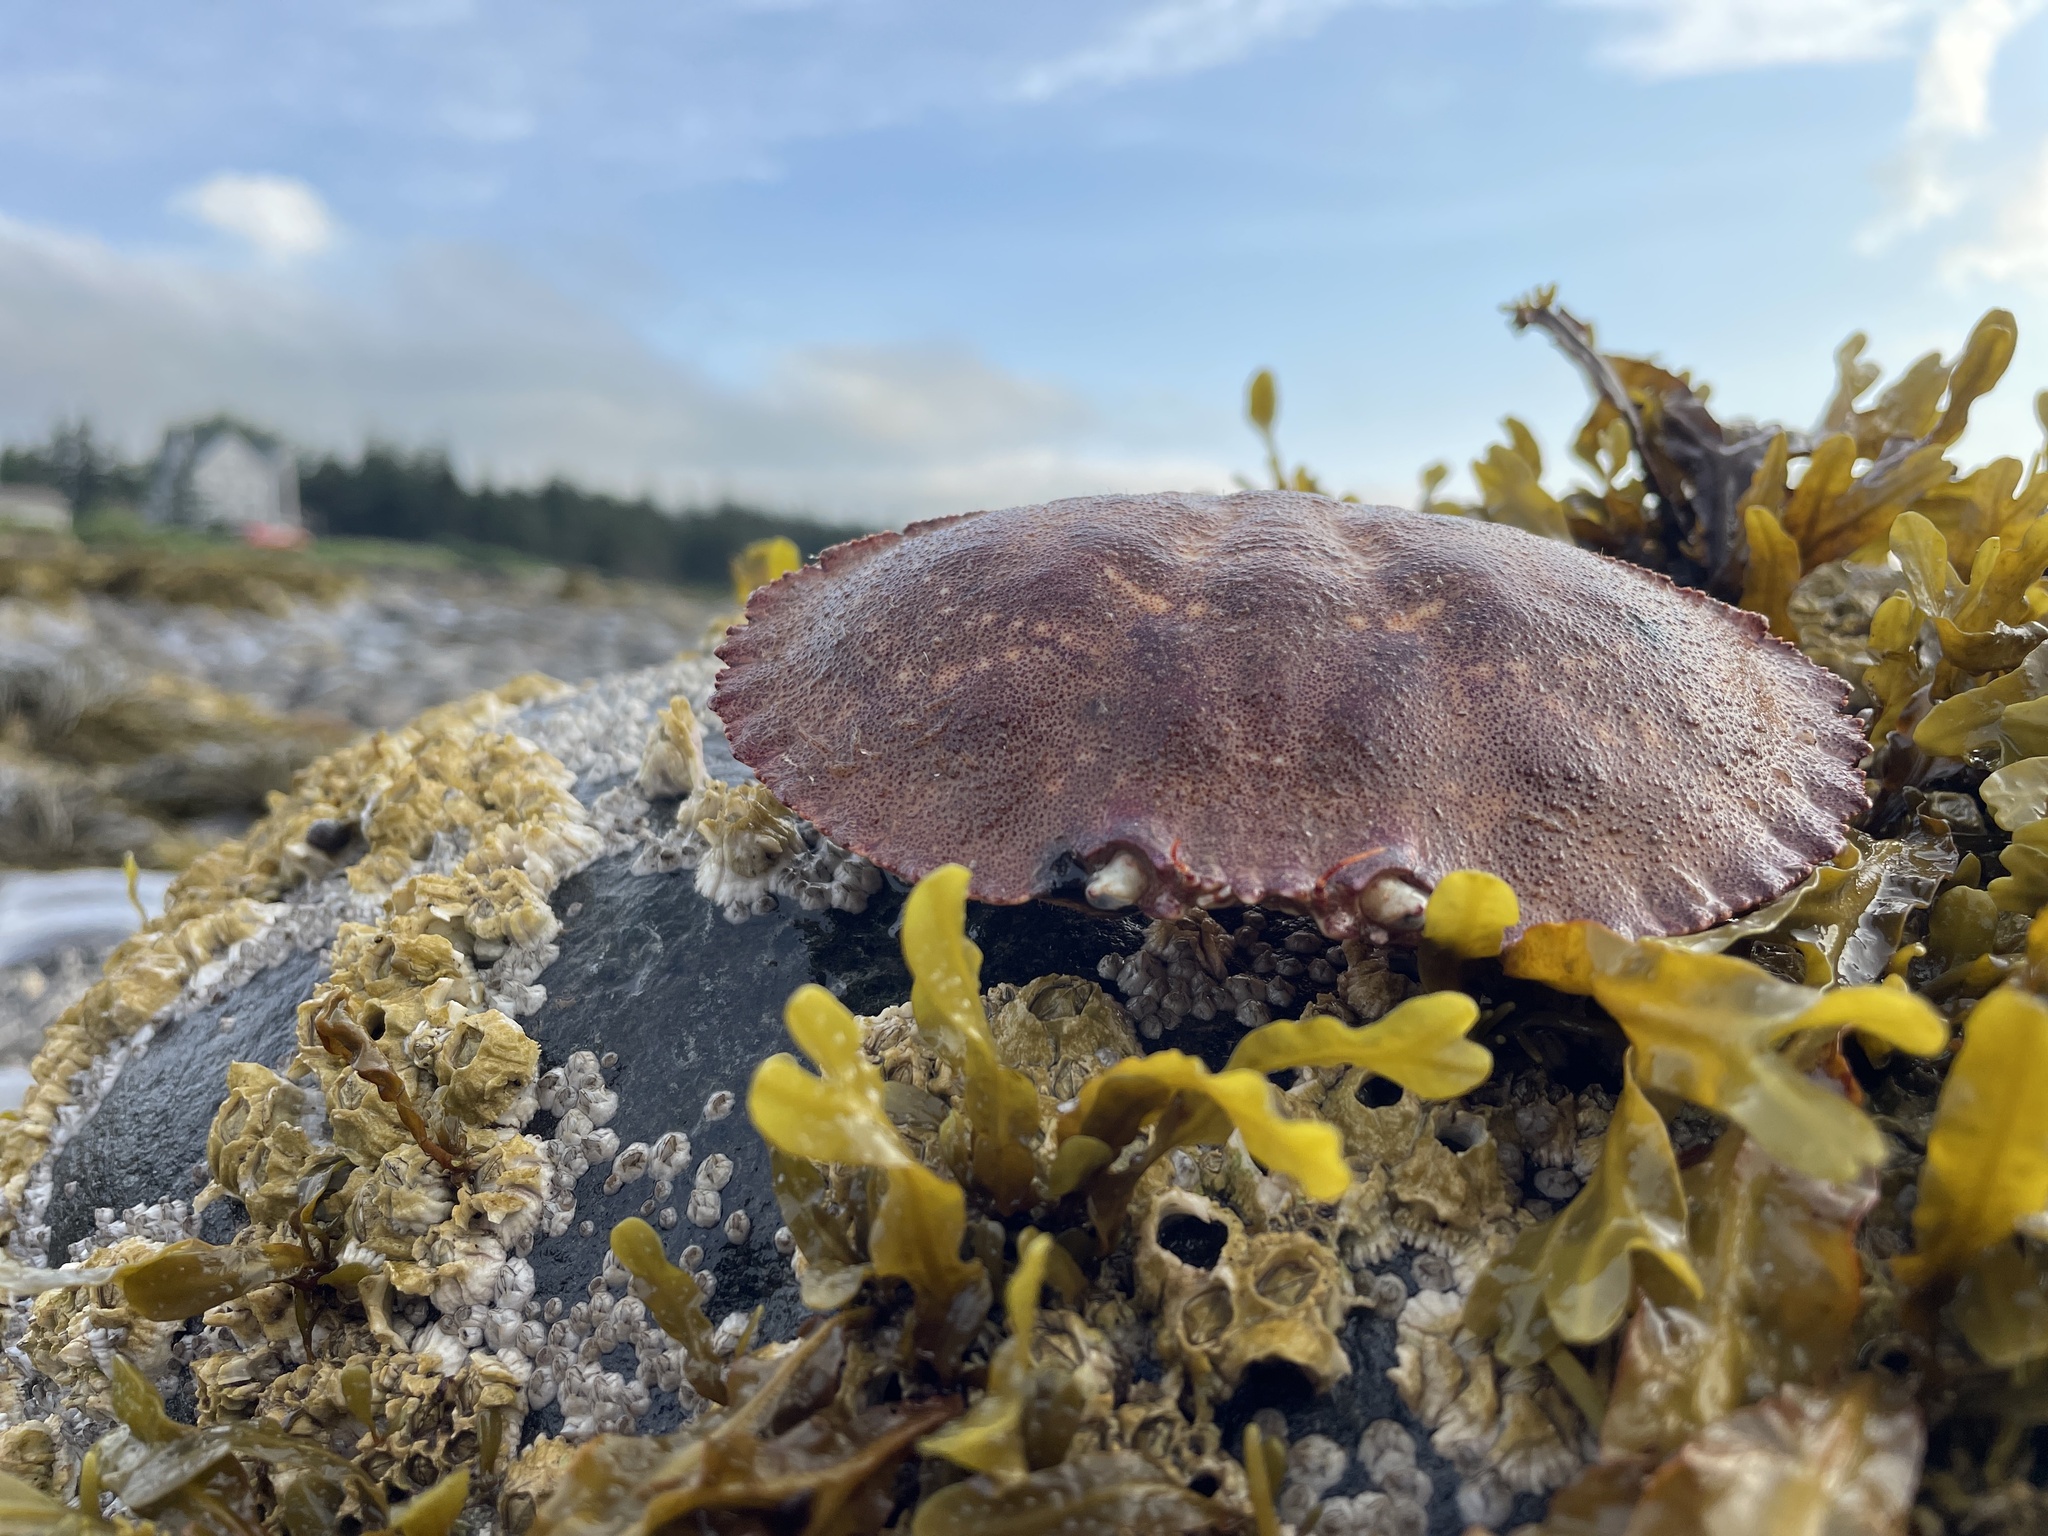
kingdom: Animalia
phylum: Arthropoda
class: Malacostraca
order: Decapoda
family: Cancridae
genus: Cancer
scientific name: Cancer borealis
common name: Jonah crab
